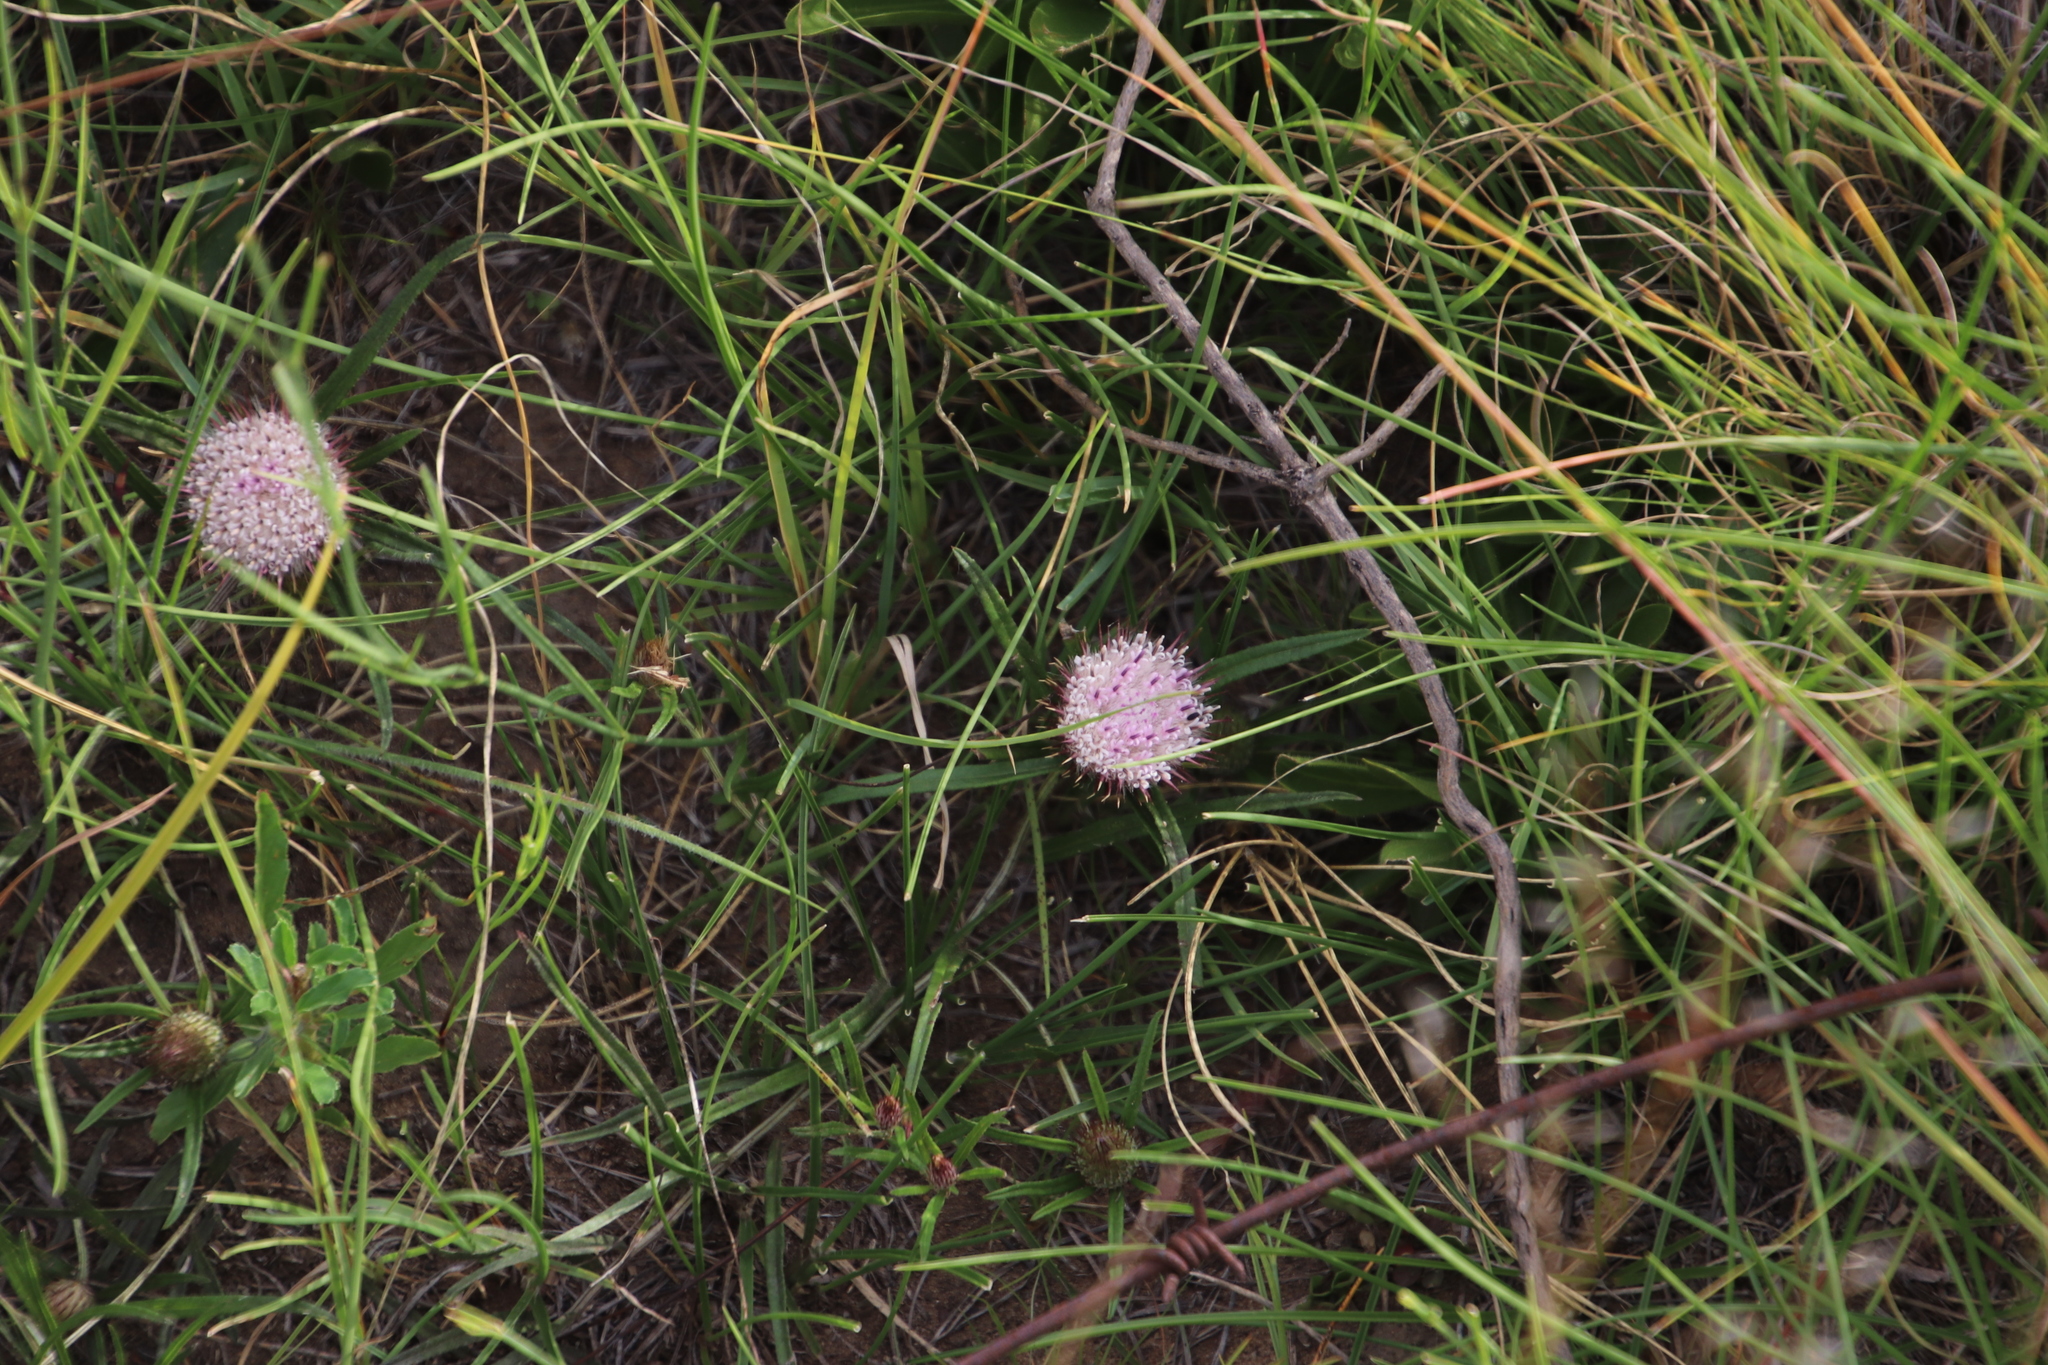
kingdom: Plantae
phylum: Tracheophyta
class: Magnoliopsida
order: Asterales
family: Asteraceae
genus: Dicoma
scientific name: Dicoma anomala
